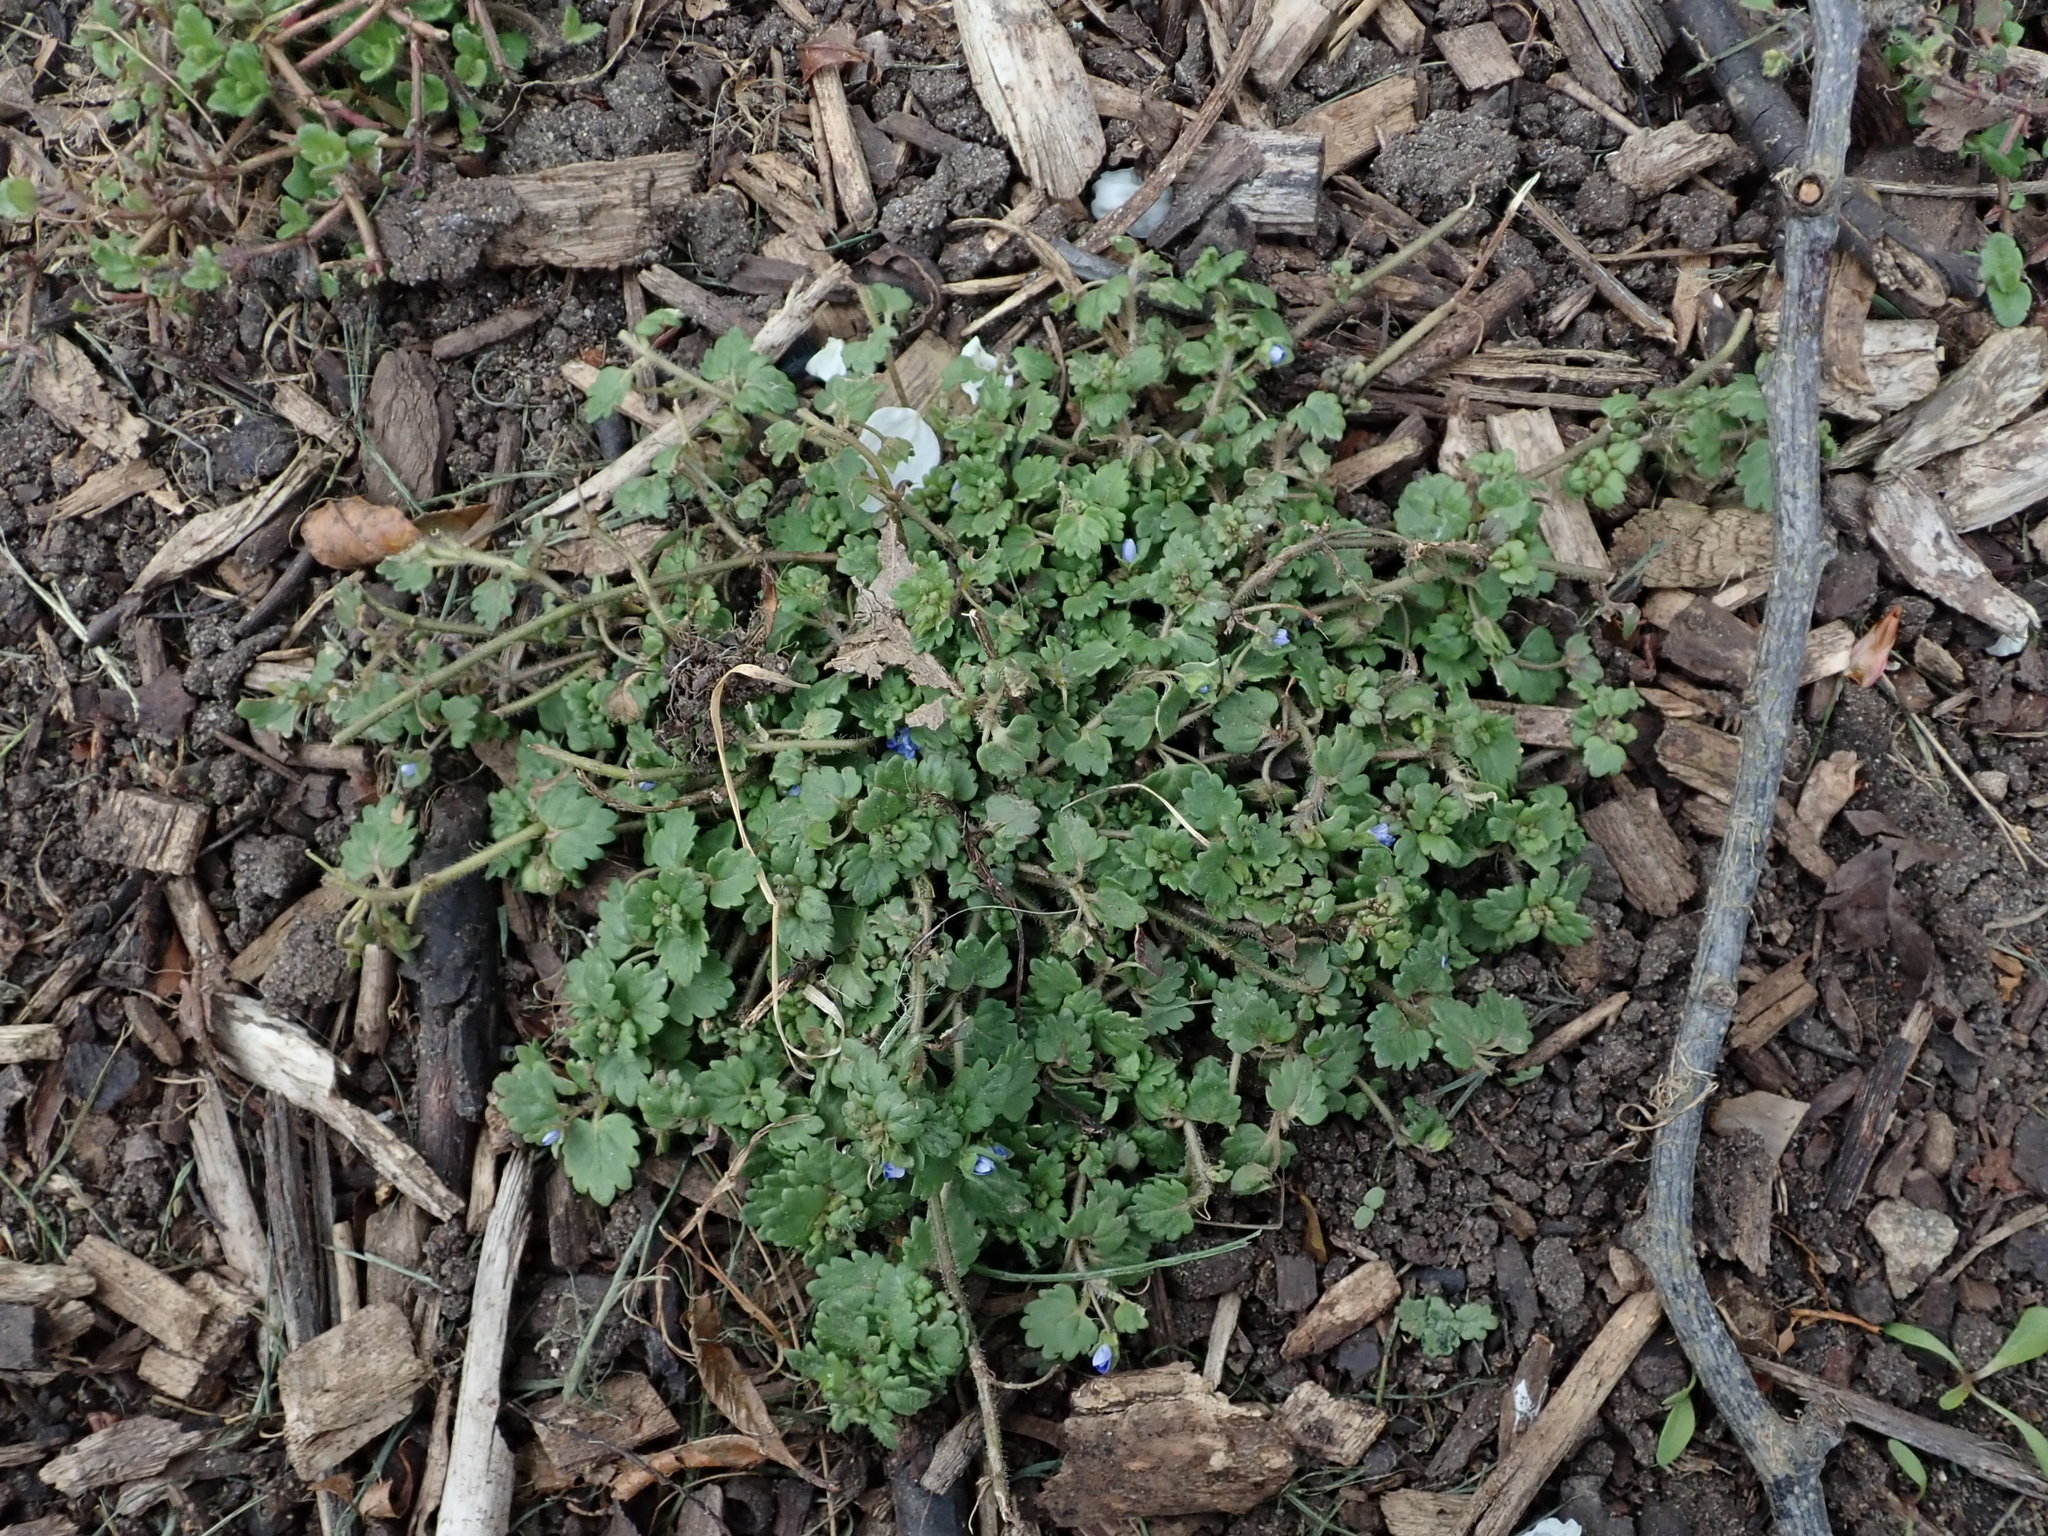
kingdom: Plantae
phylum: Tracheophyta
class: Magnoliopsida
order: Lamiales
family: Plantaginaceae
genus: Veronica
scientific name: Veronica polita
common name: Grey field-speedwell
